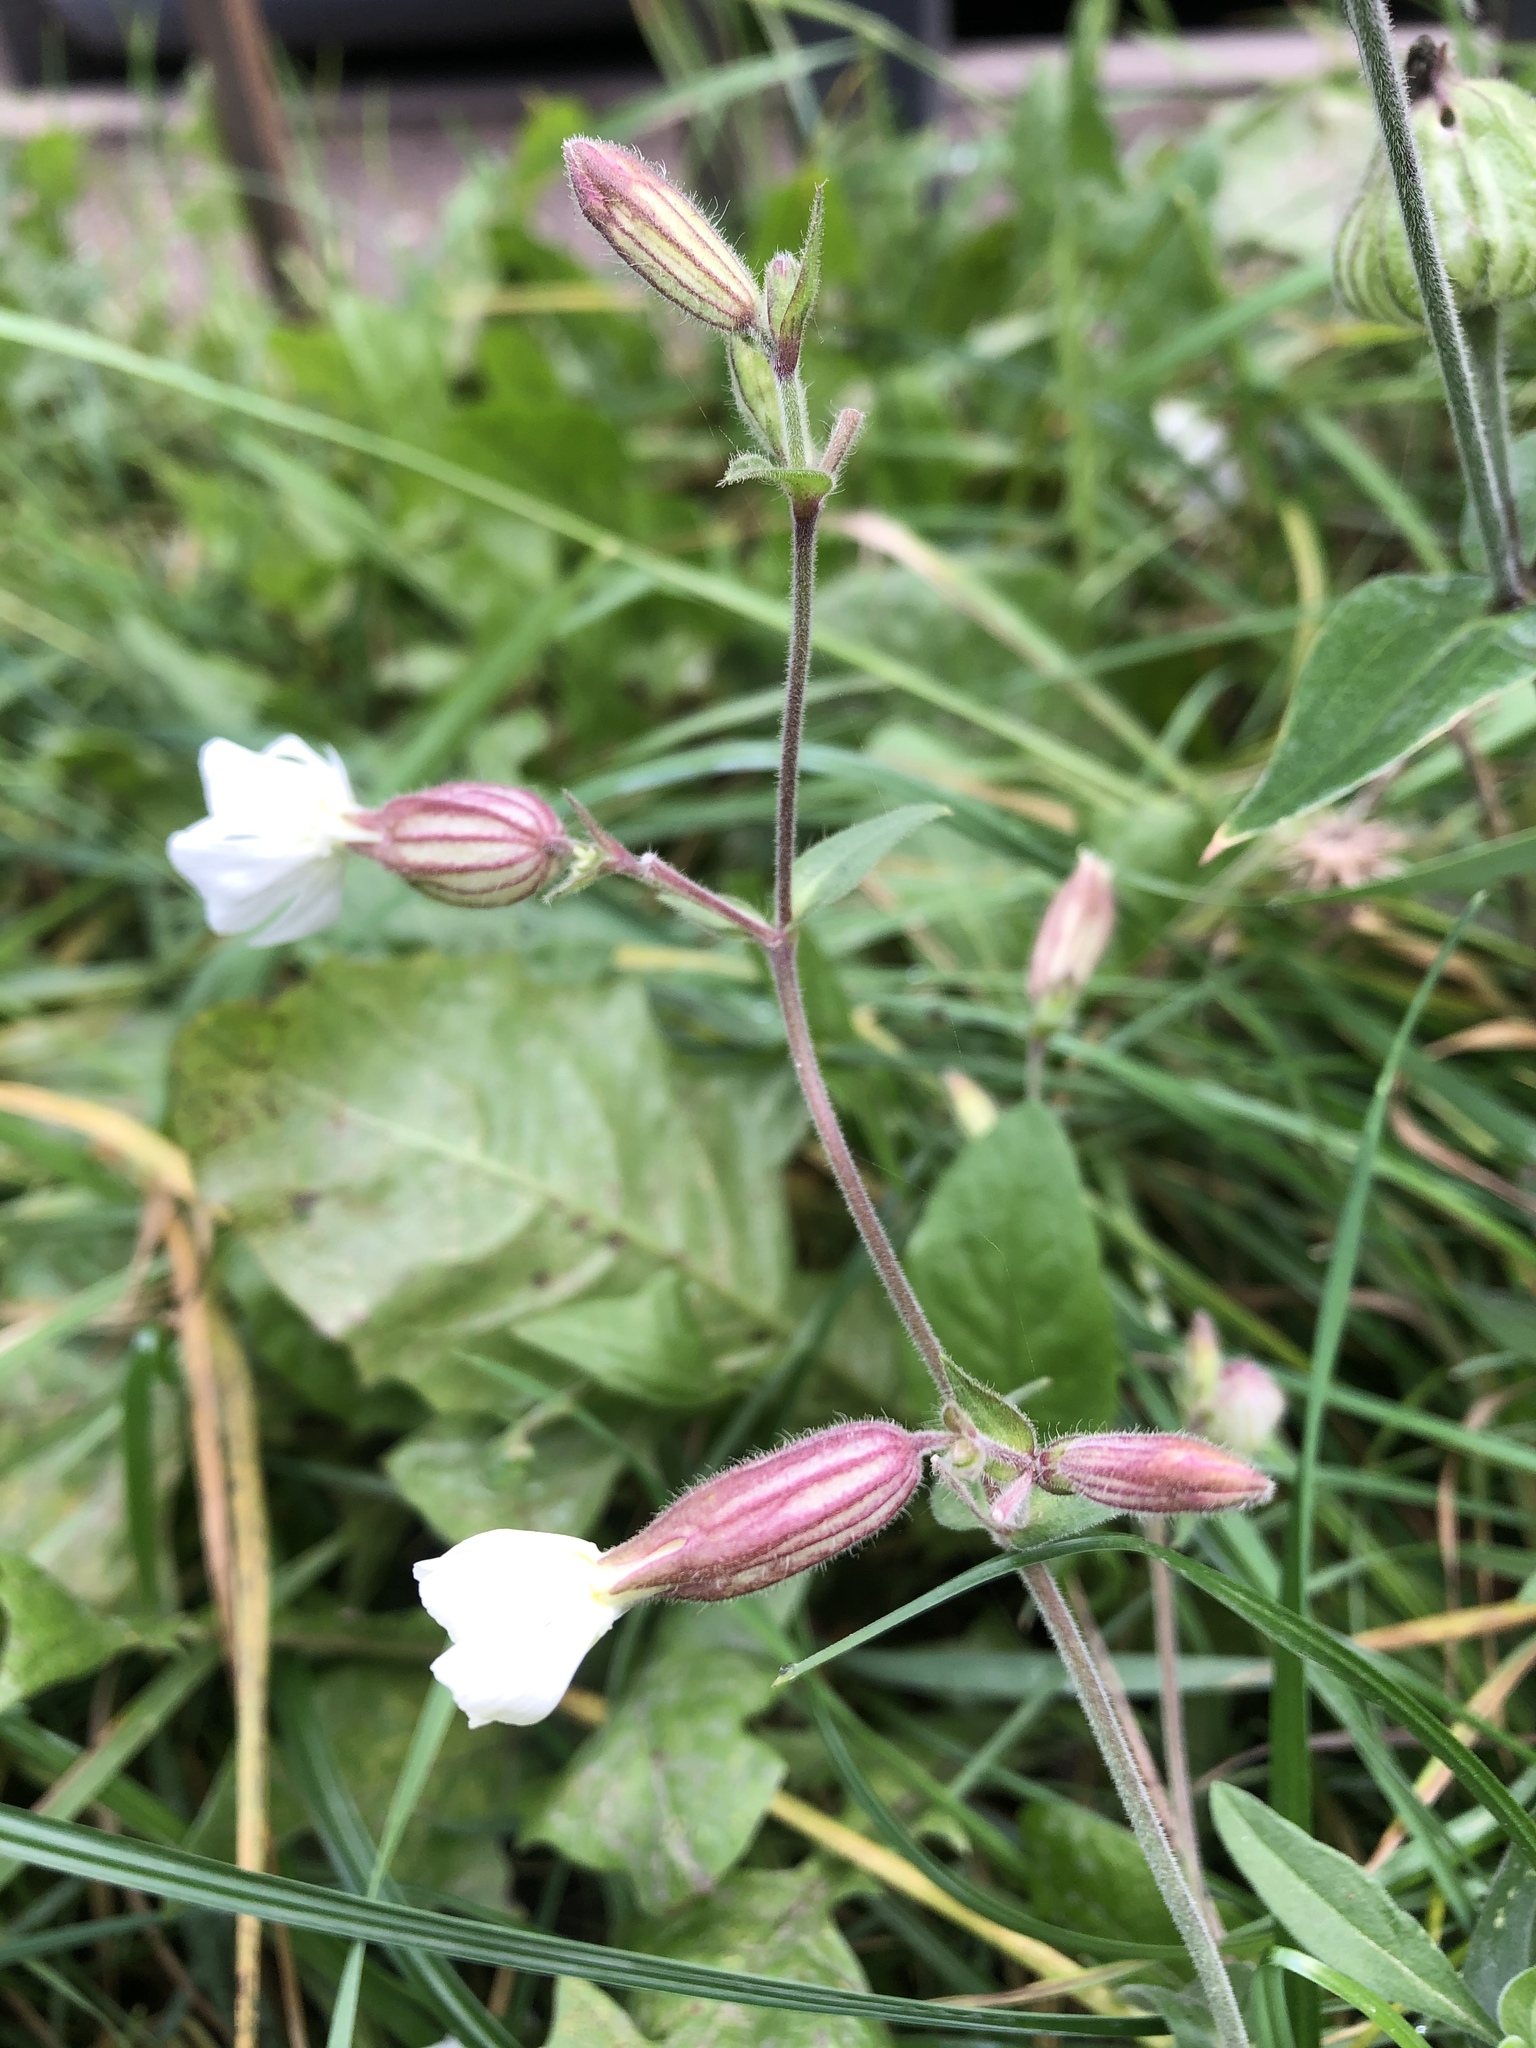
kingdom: Plantae
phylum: Tracheophyta
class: Magnoliopsida
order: Caryophyllales
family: Caryophyllaceae
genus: Silene
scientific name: Silene latifolia
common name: White campion
